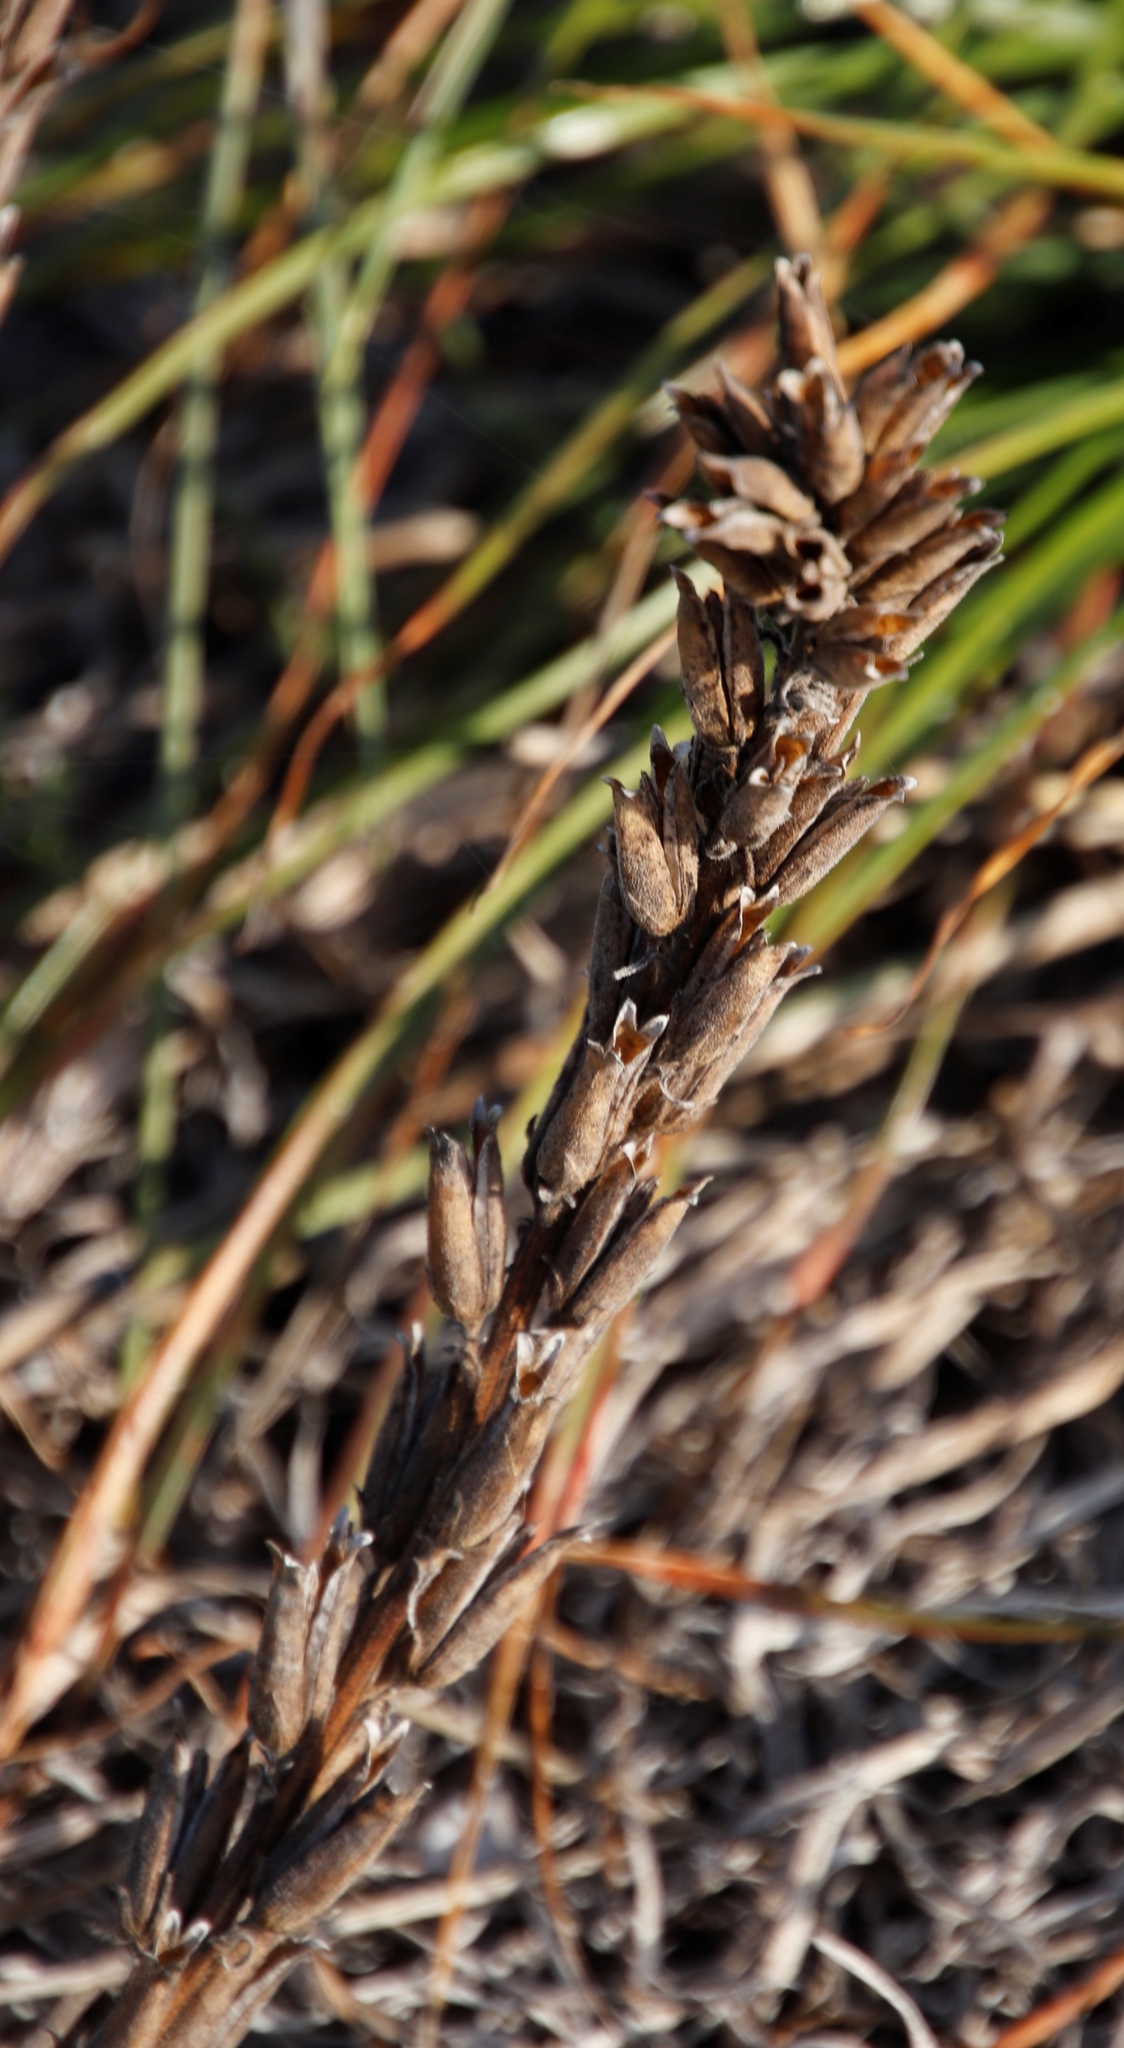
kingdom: Plantae
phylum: Tracheophyta
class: Magnoliopsida
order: Lamiales
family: Scrophulariaceae
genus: Lyperia
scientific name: Lyperia lychnidea
